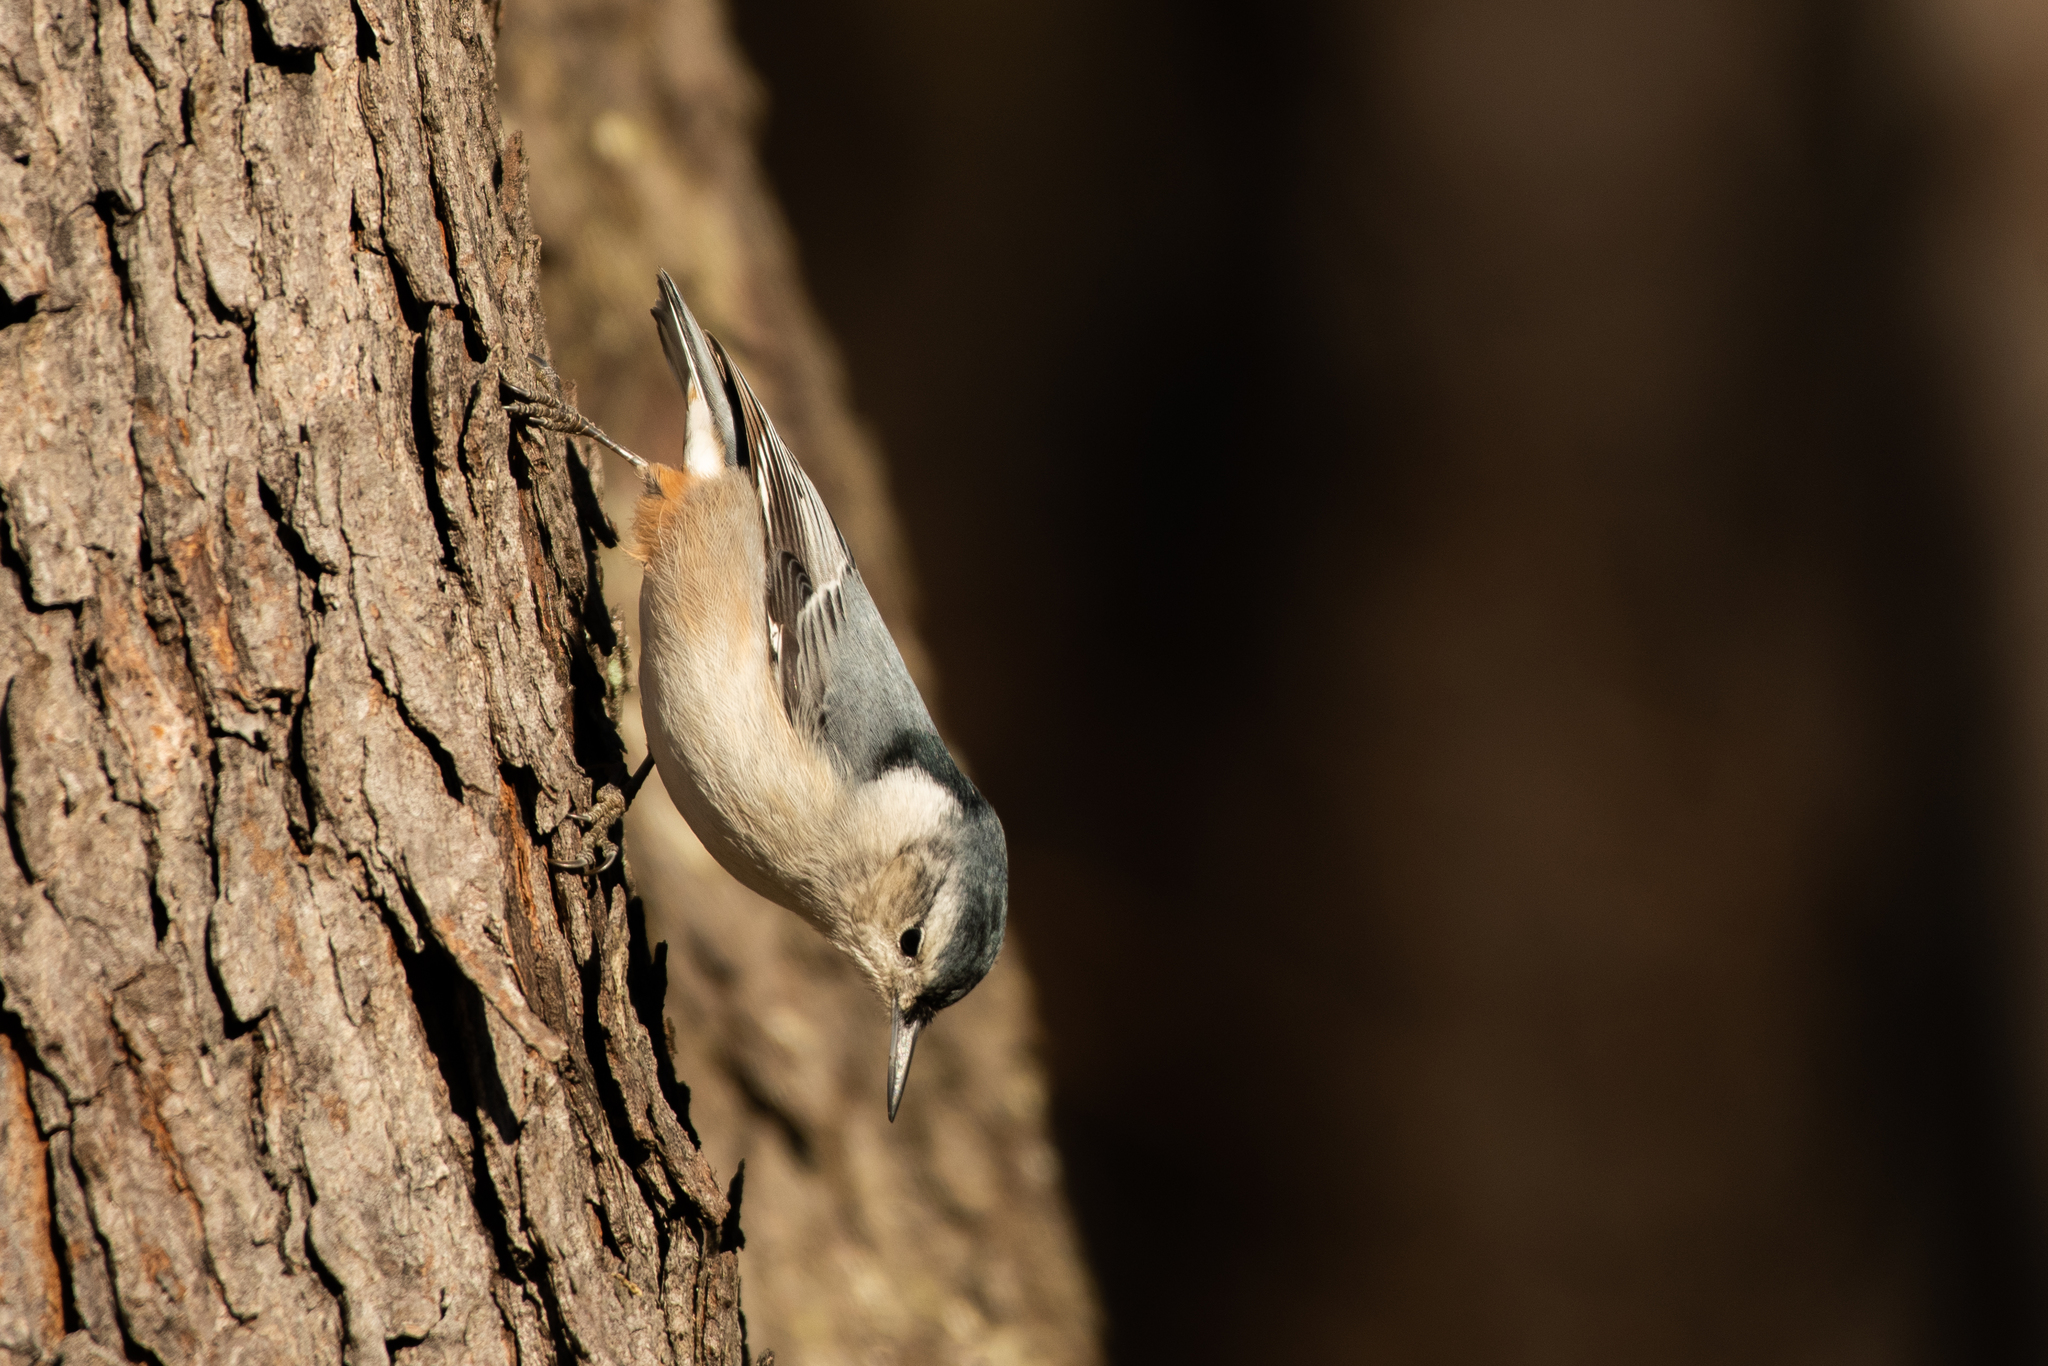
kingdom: Animalia
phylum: Chordata
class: Aves
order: Passeriformes
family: Sittidae
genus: Sitta
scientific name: Sitta carolinensis
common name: White-breasted nuthatch
